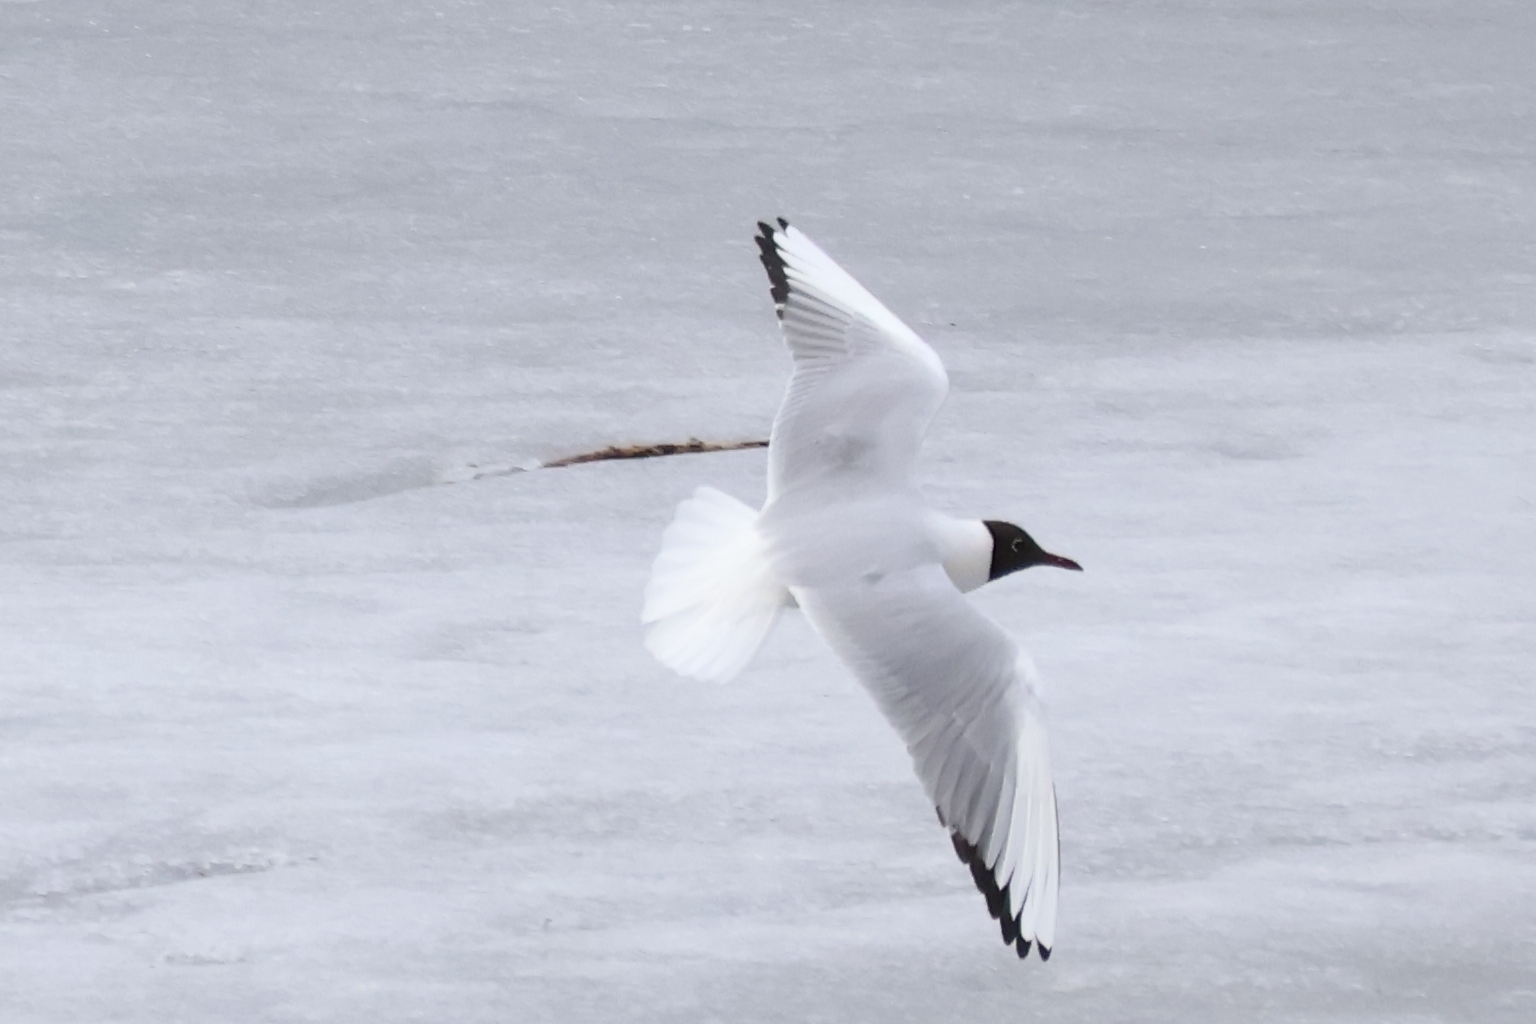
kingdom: Animalia
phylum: Chordata
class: Aves
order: Charadriiformes
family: Laridae
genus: Chroicocephalus
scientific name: Chroicocephalus ridibundus
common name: Black-headed gull
